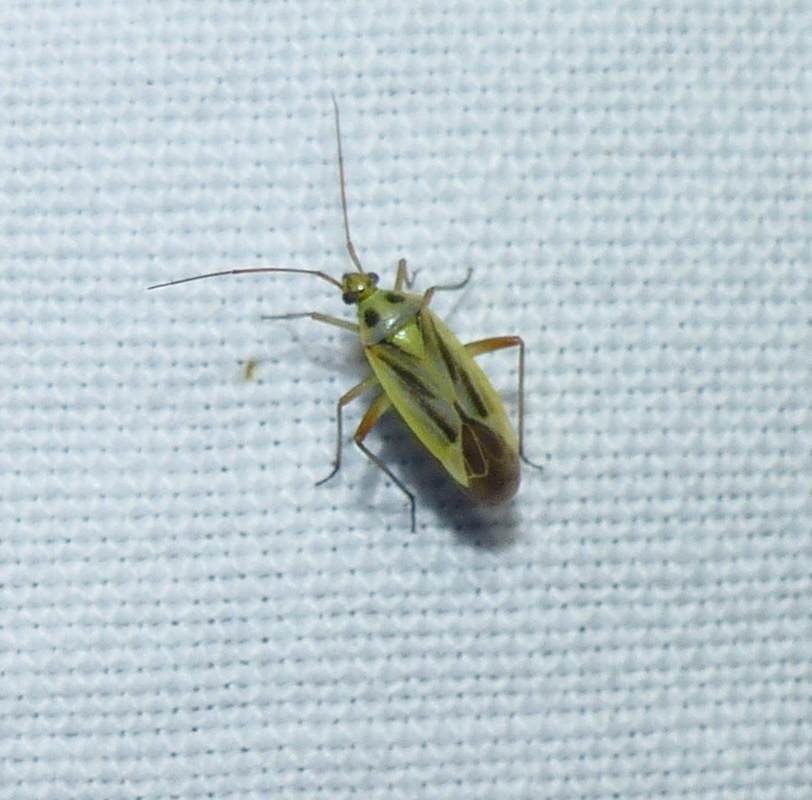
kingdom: Animalia
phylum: Arthropoda
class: Insecta
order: Hemiptera
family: Miridae
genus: Stenotus
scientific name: Stenotus binotatus
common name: Plant bug
